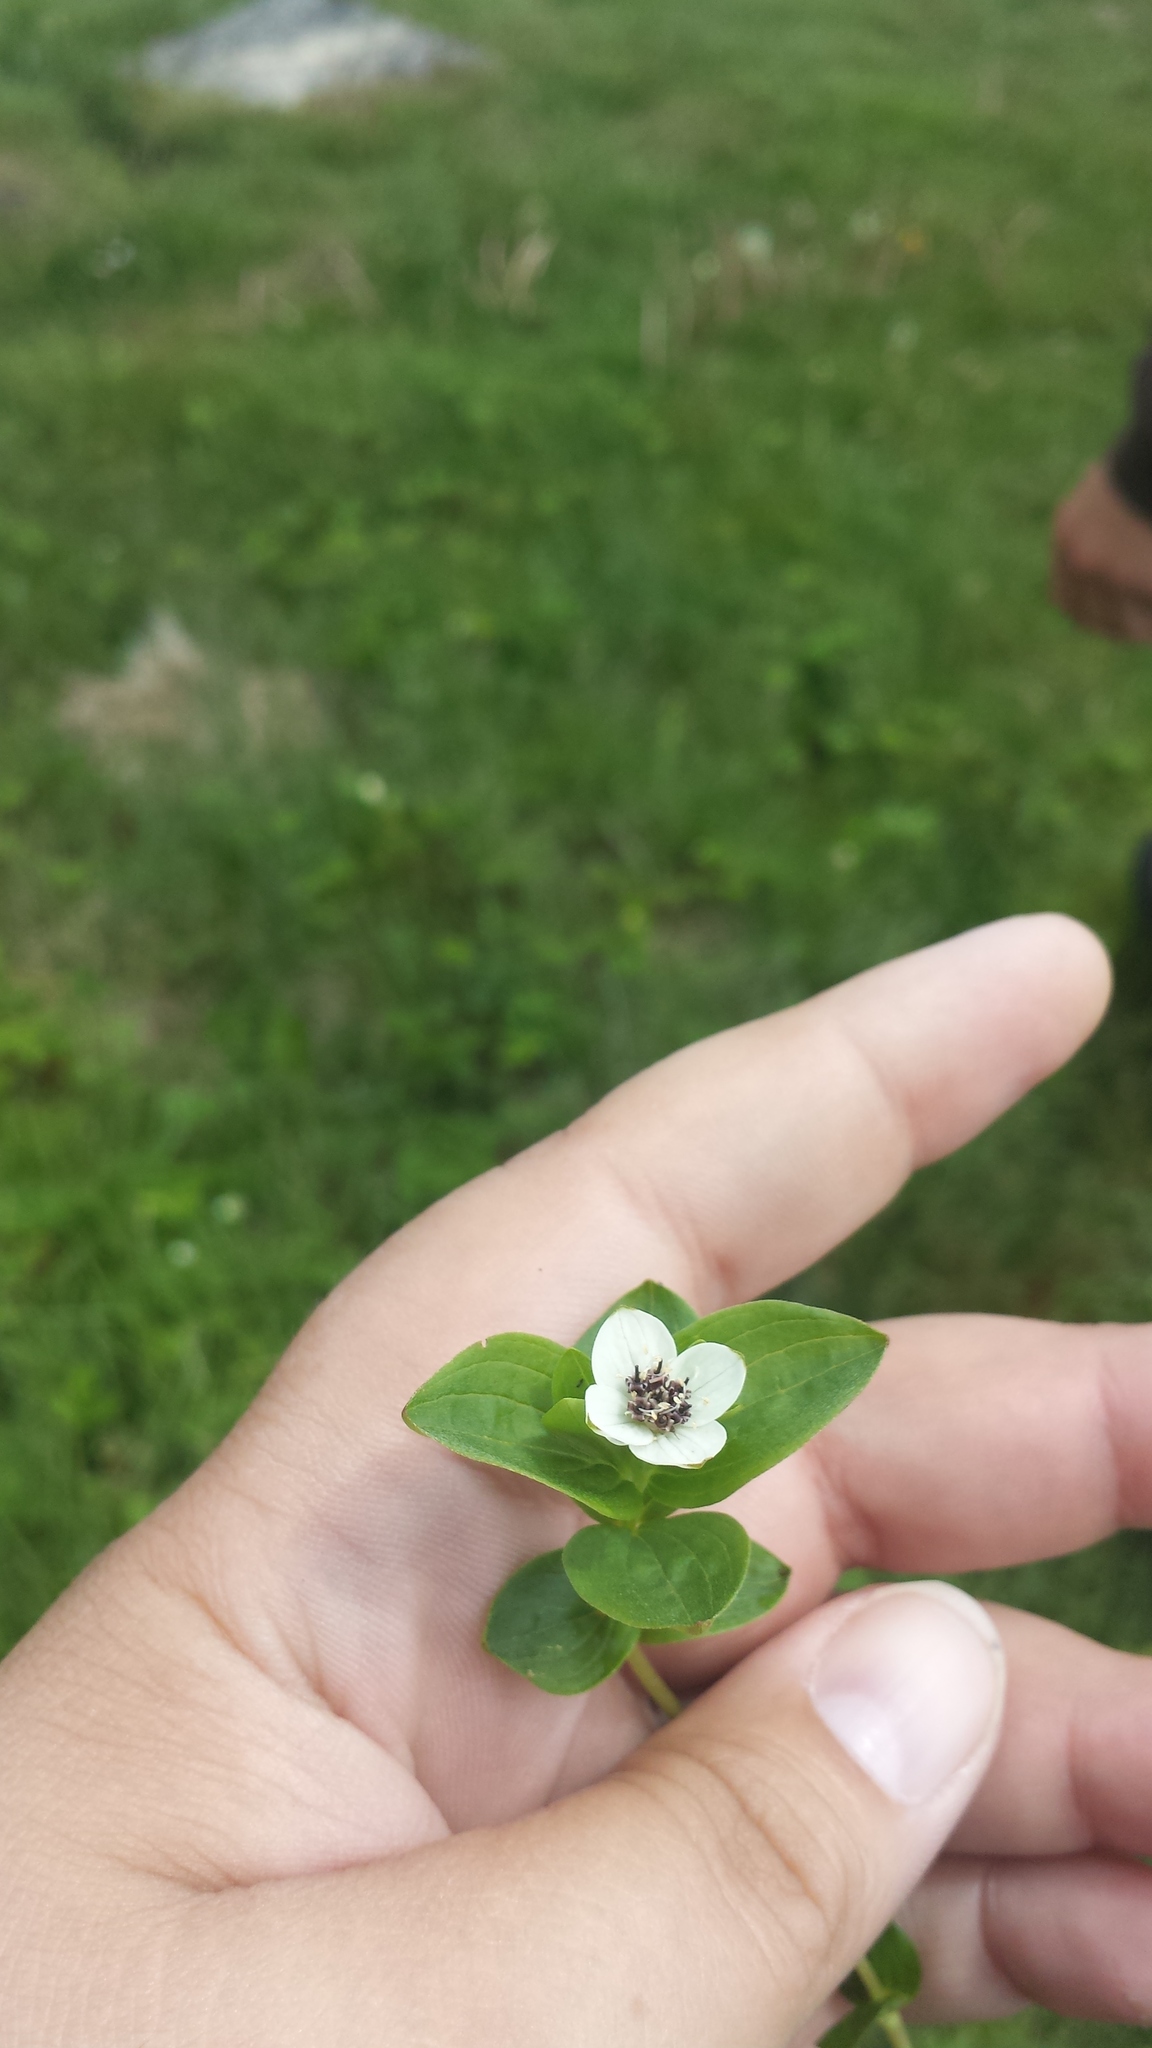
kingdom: Plantae
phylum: Tracheophyta
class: Magnoliopsida
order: Cornales
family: Cornaceae
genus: Cornus
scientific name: Cornus suecica
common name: Dwarf cornel
